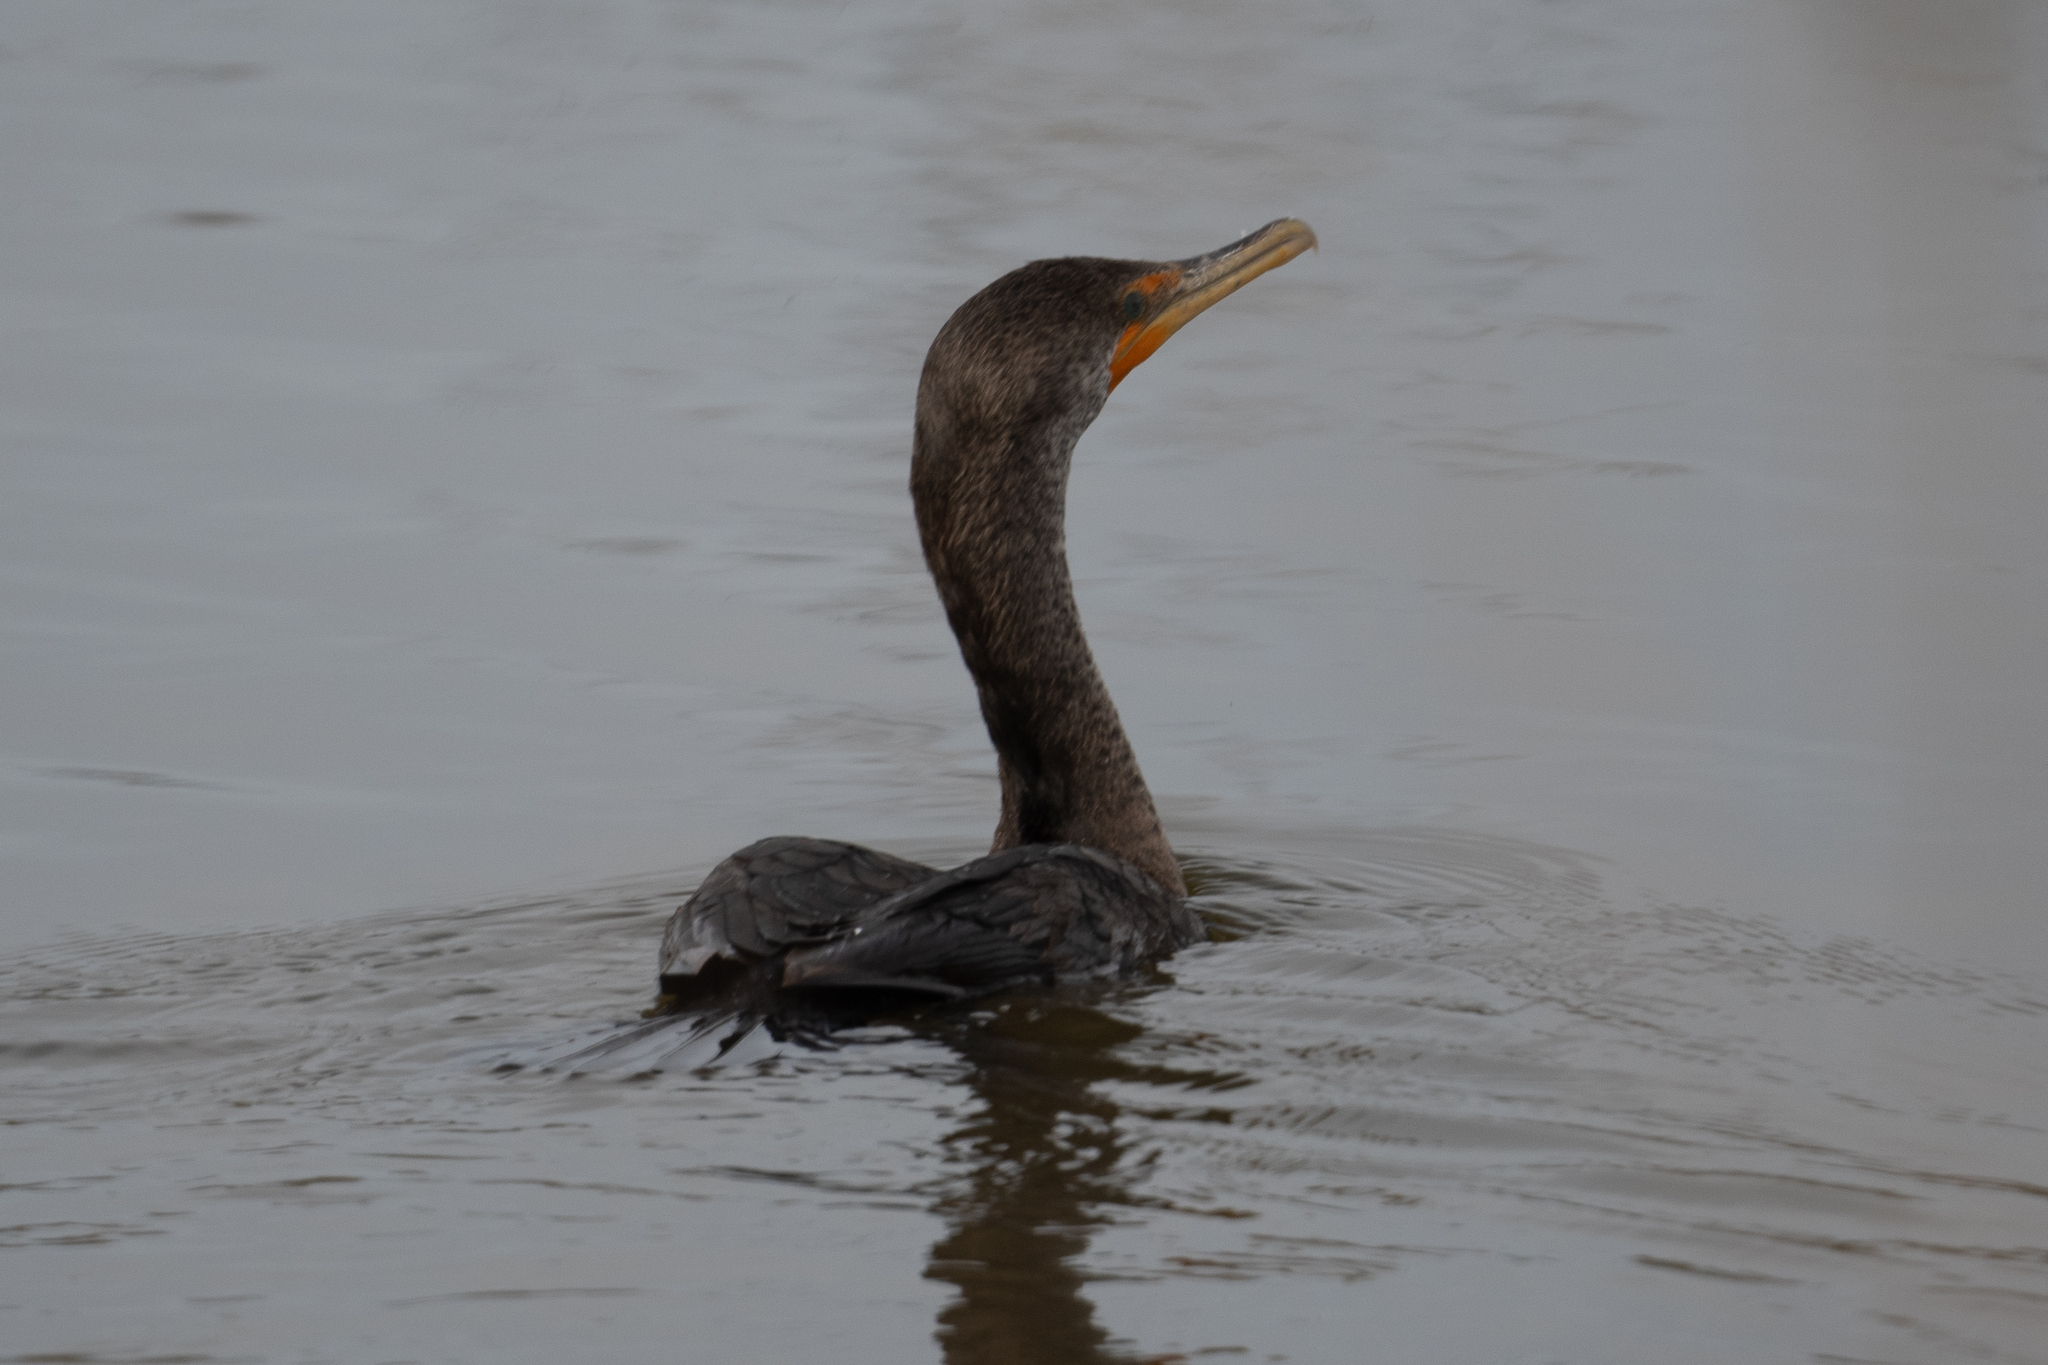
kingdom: Animalia
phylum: Chordata
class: Aves
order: Suliformes
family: Phalacrocoracidae
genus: Phalacrocorax
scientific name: Phalacrocorax auritus
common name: Double-crested cormorant
